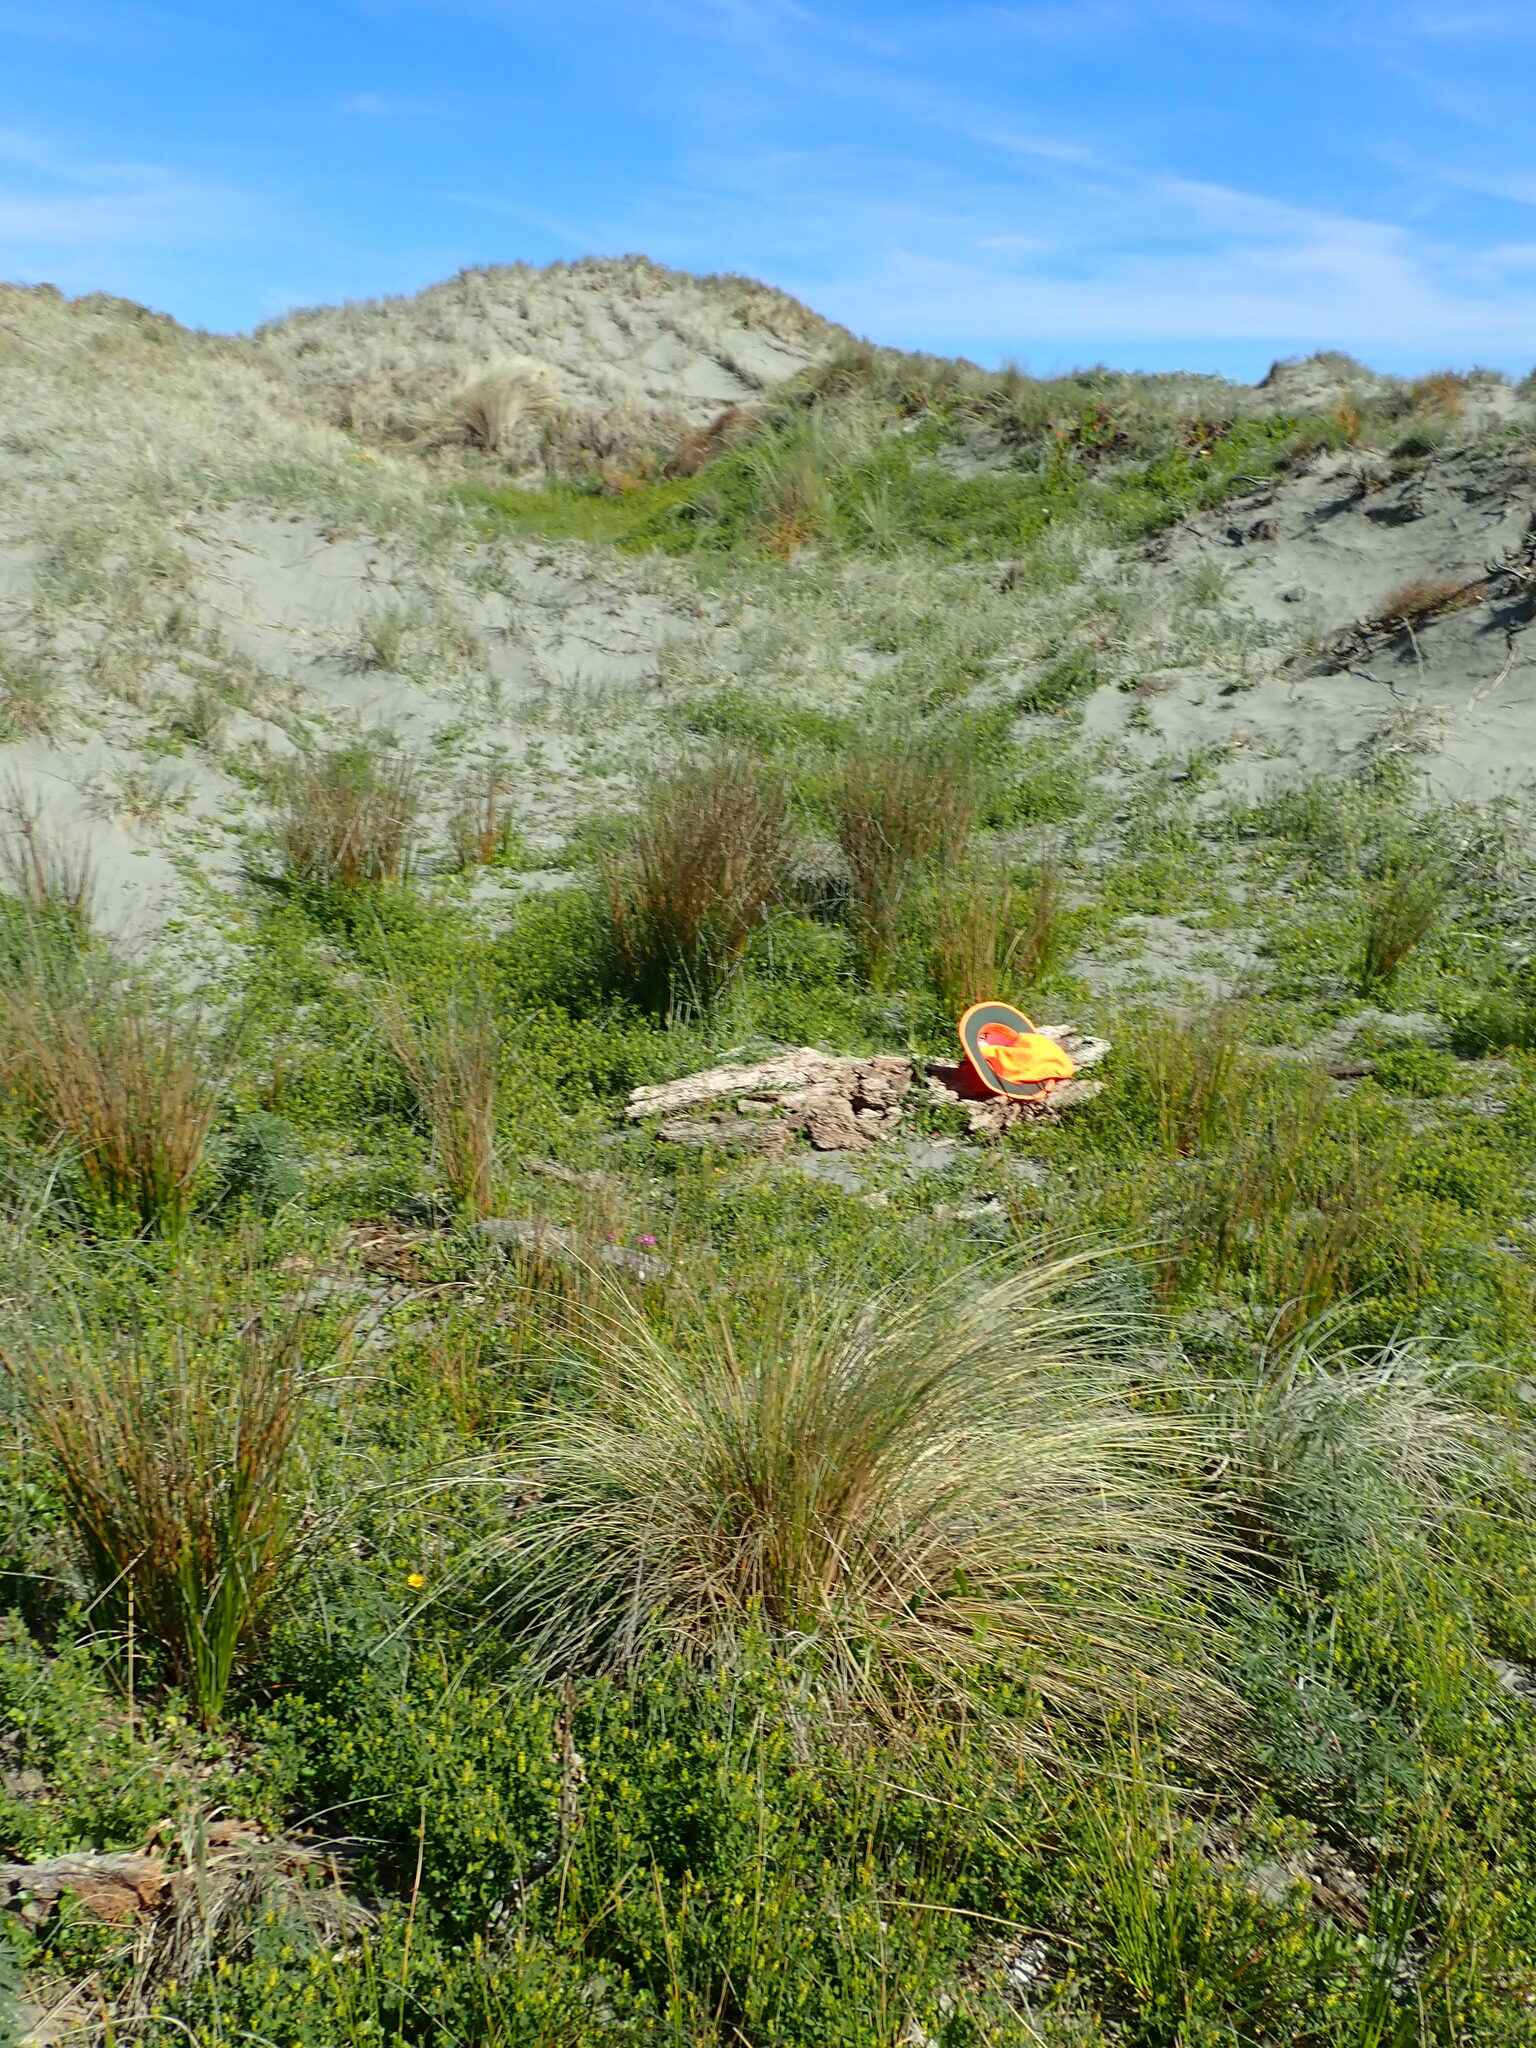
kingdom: Animalia
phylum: Platyhelminthes
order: Tricladida
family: Geoplanidae
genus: Caenoplana
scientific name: Caenoplana coerulea
